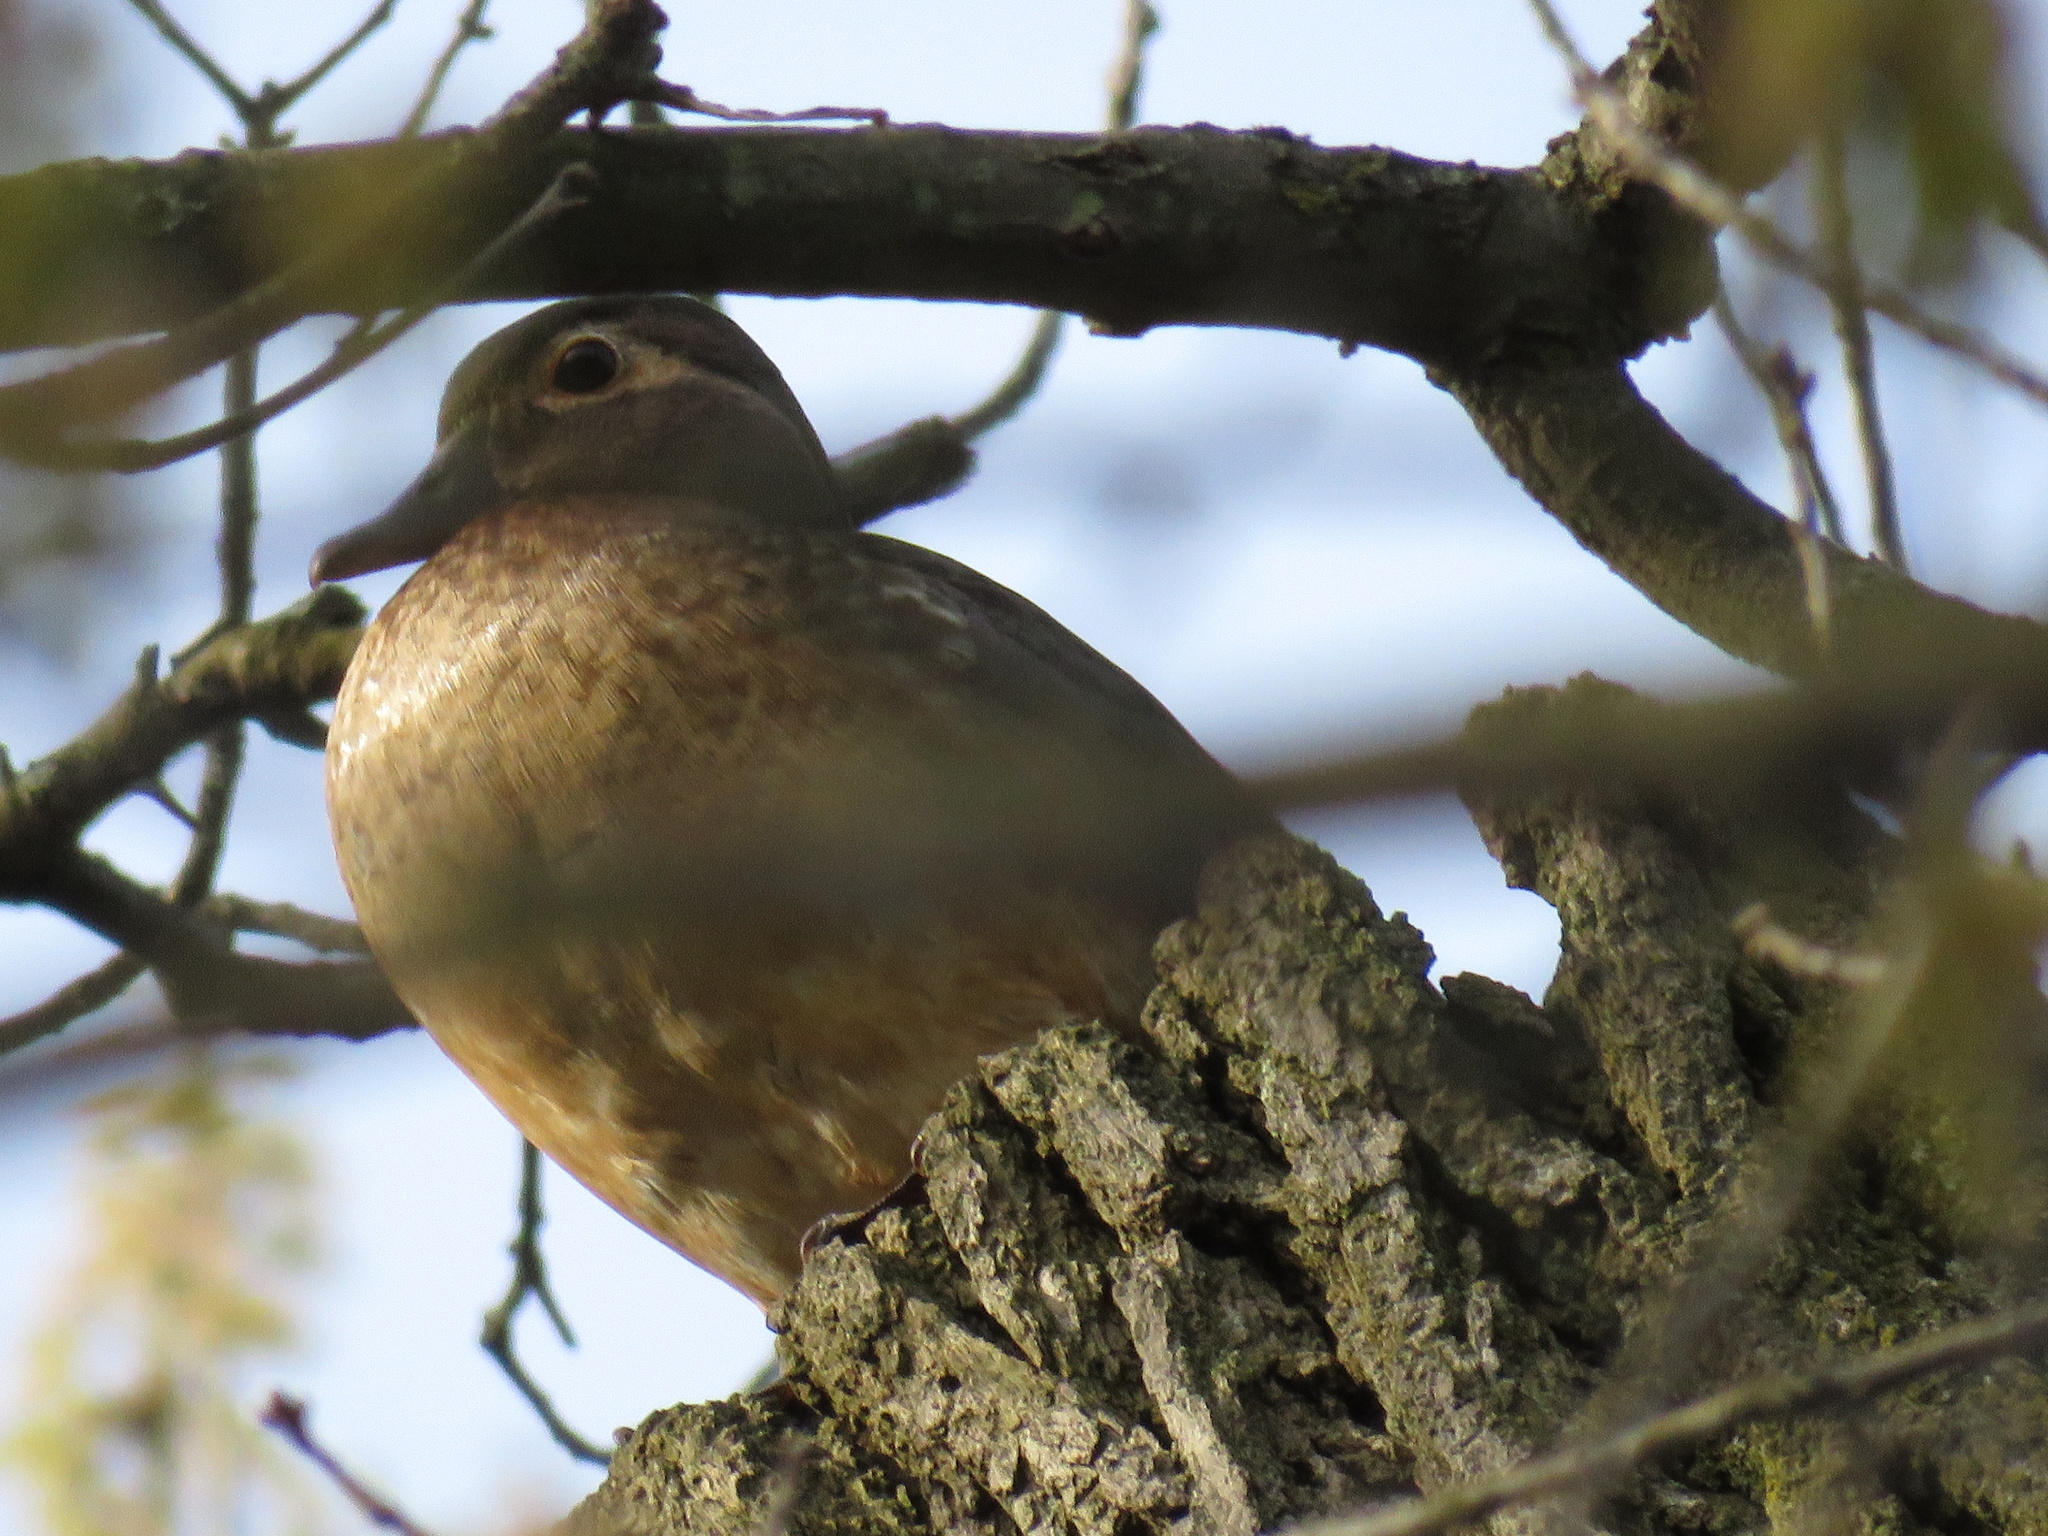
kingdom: Animalia
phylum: Chordata
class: Aves
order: Anseriformes
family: Anatidae
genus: Aix
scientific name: Aix sponsa
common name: Wood duck
